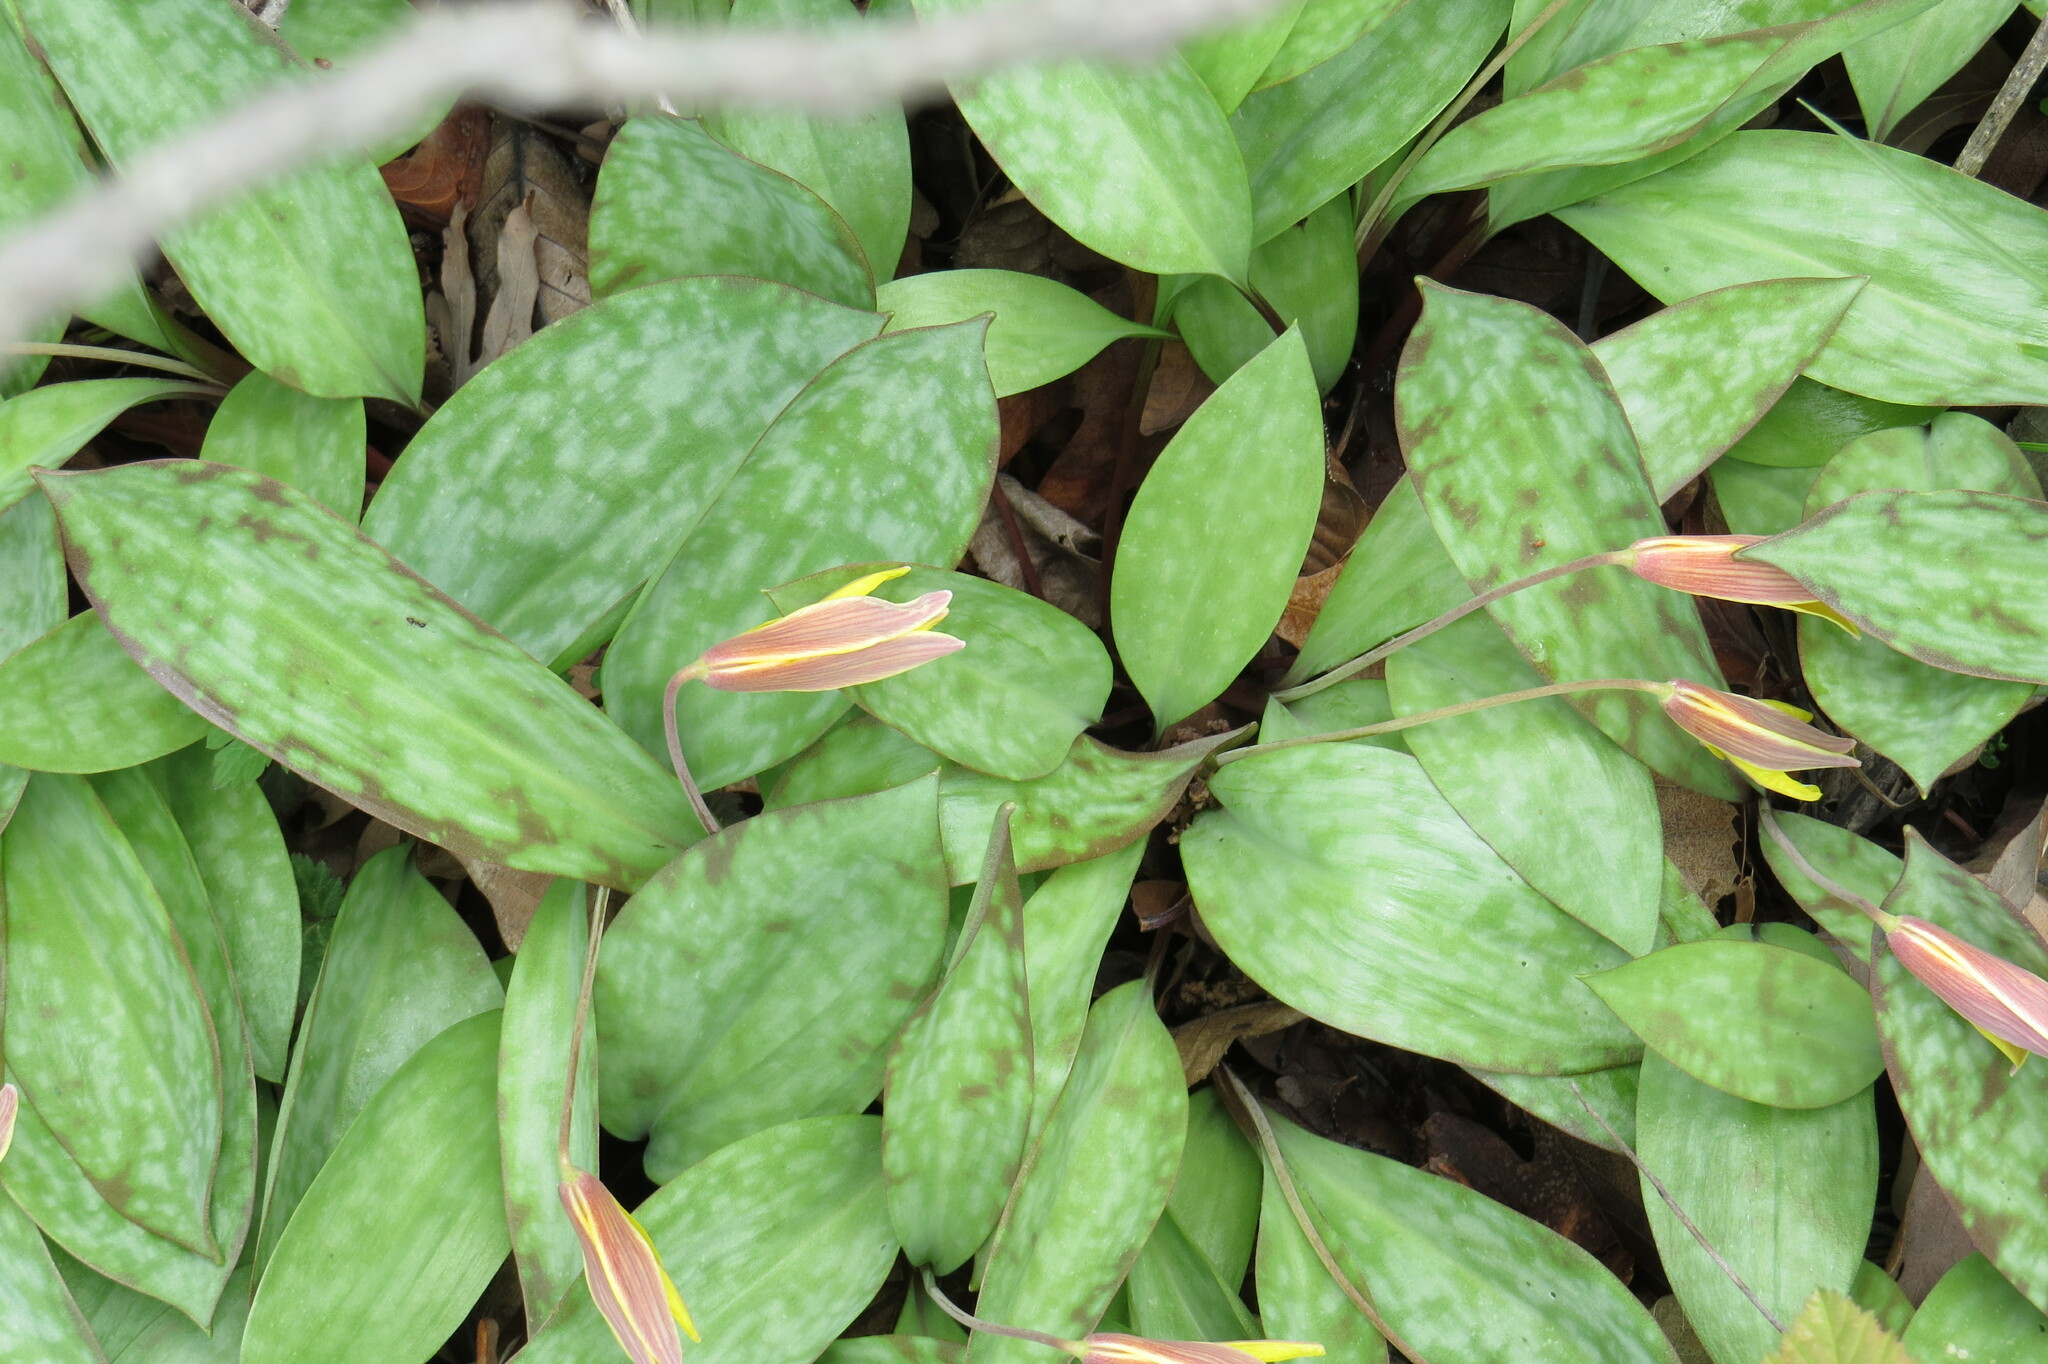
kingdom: Plantae
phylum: Tracheophyta
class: Liliopsida
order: Liliales
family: Liliaceae
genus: Erythronium
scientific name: Erythronium americanum
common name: Yellow adder's-tongue
